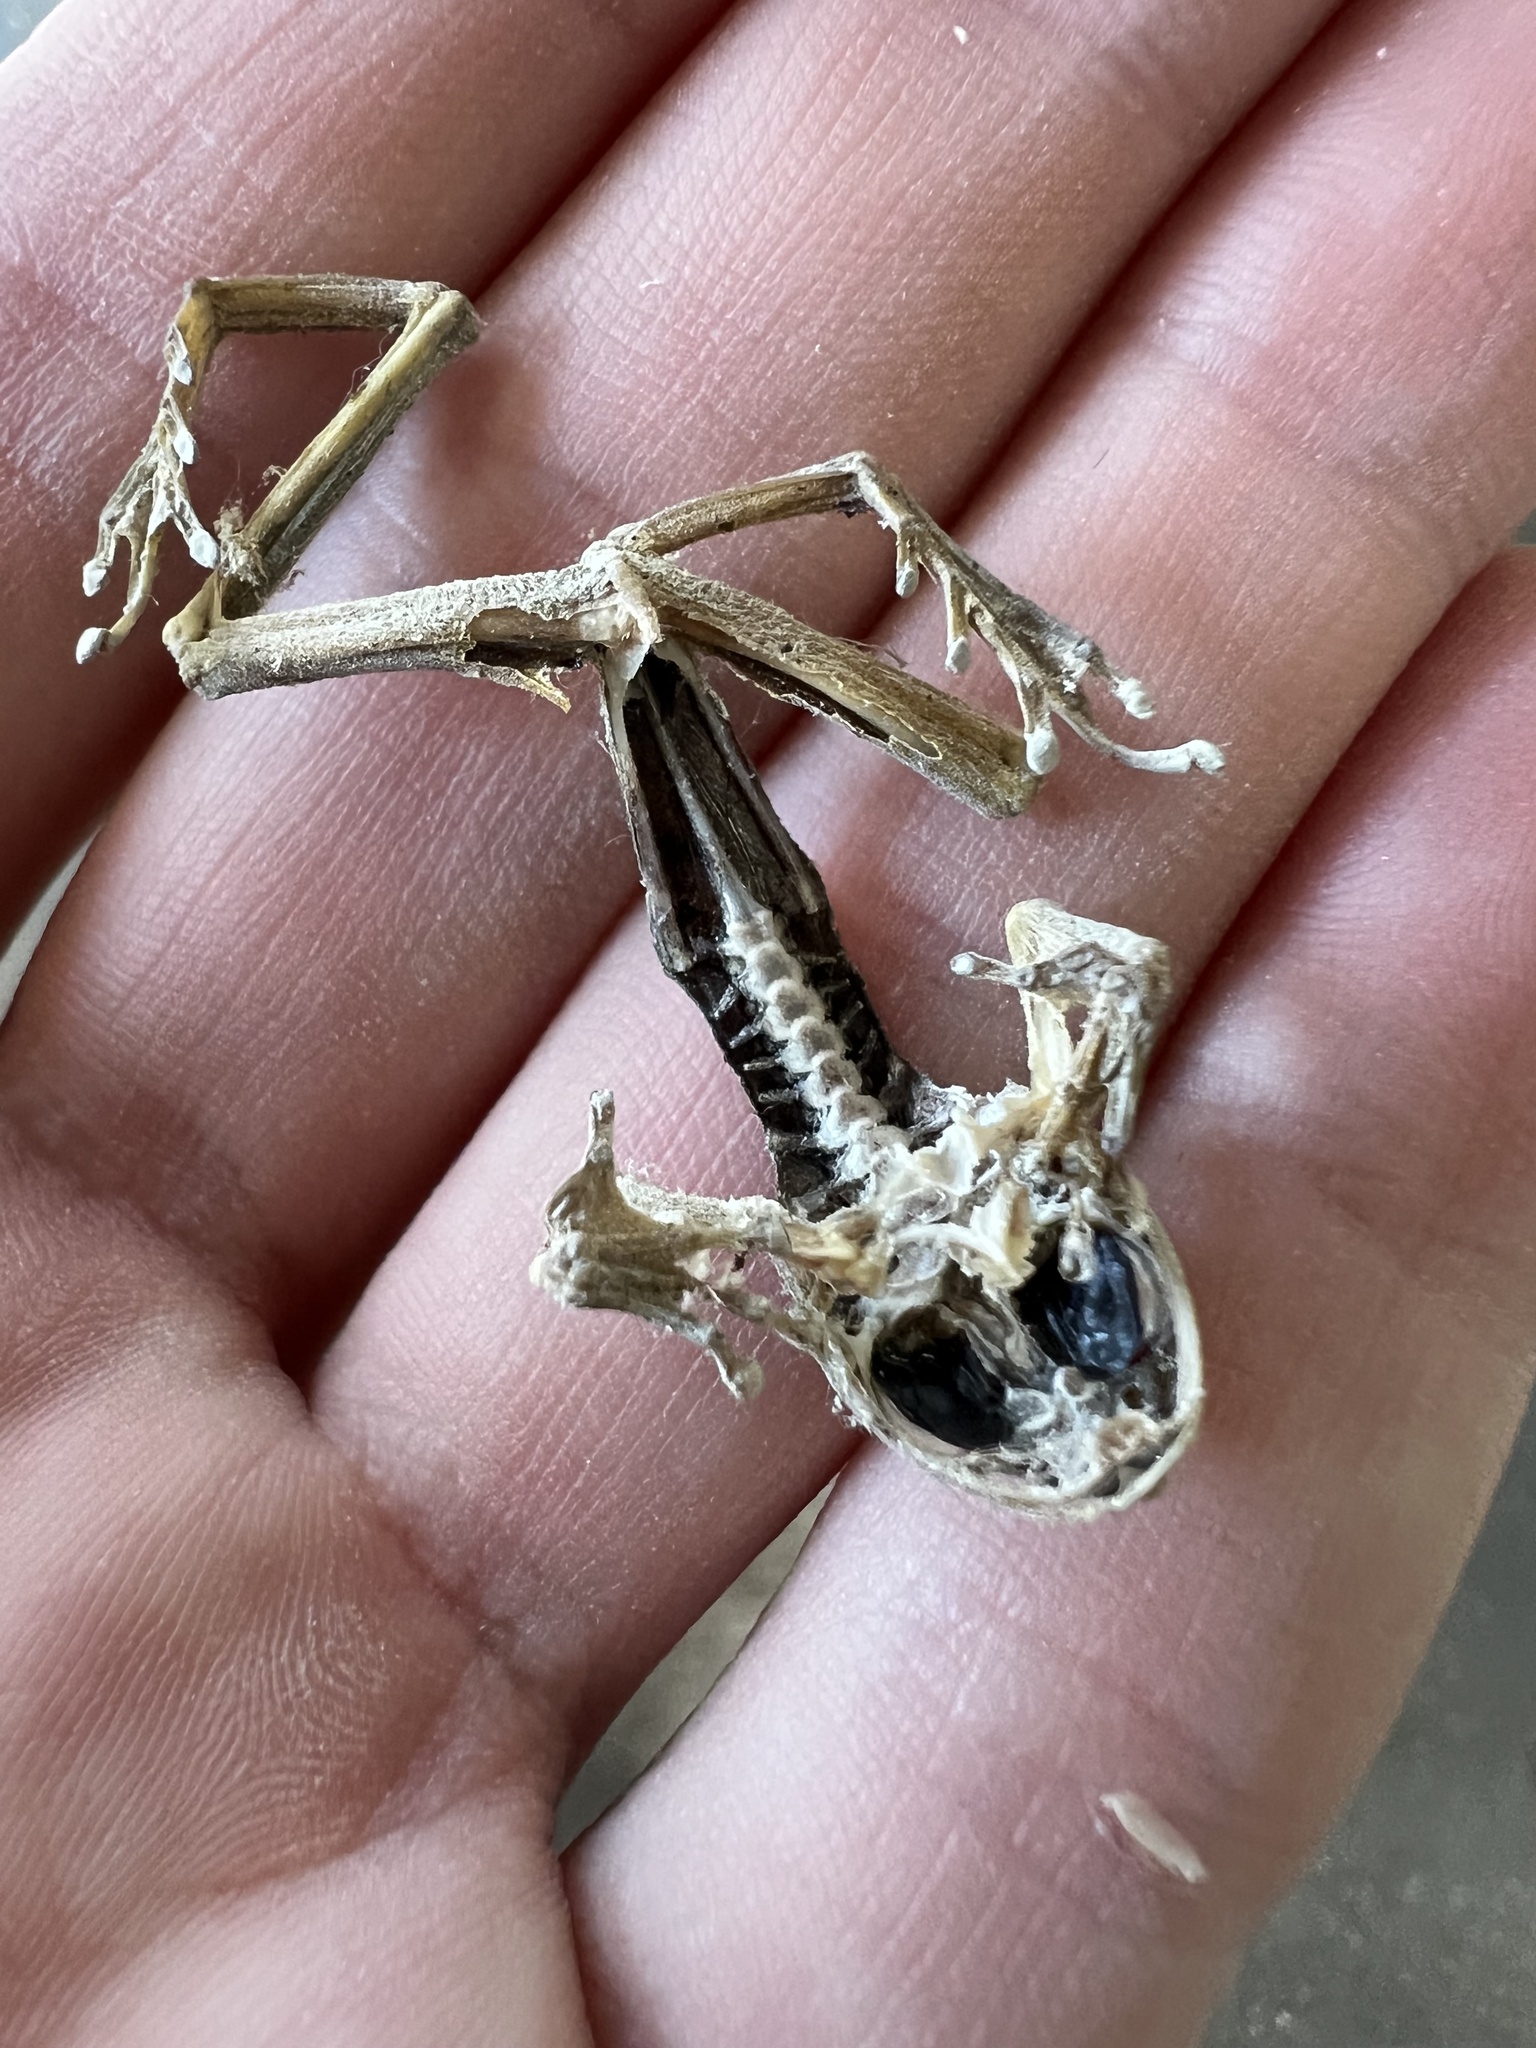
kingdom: Animalia
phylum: Chordata
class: Amphibia
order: Anura
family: Hylidae
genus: Pseudacris
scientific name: Pseudacris regilla
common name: Pacific chorus frog
